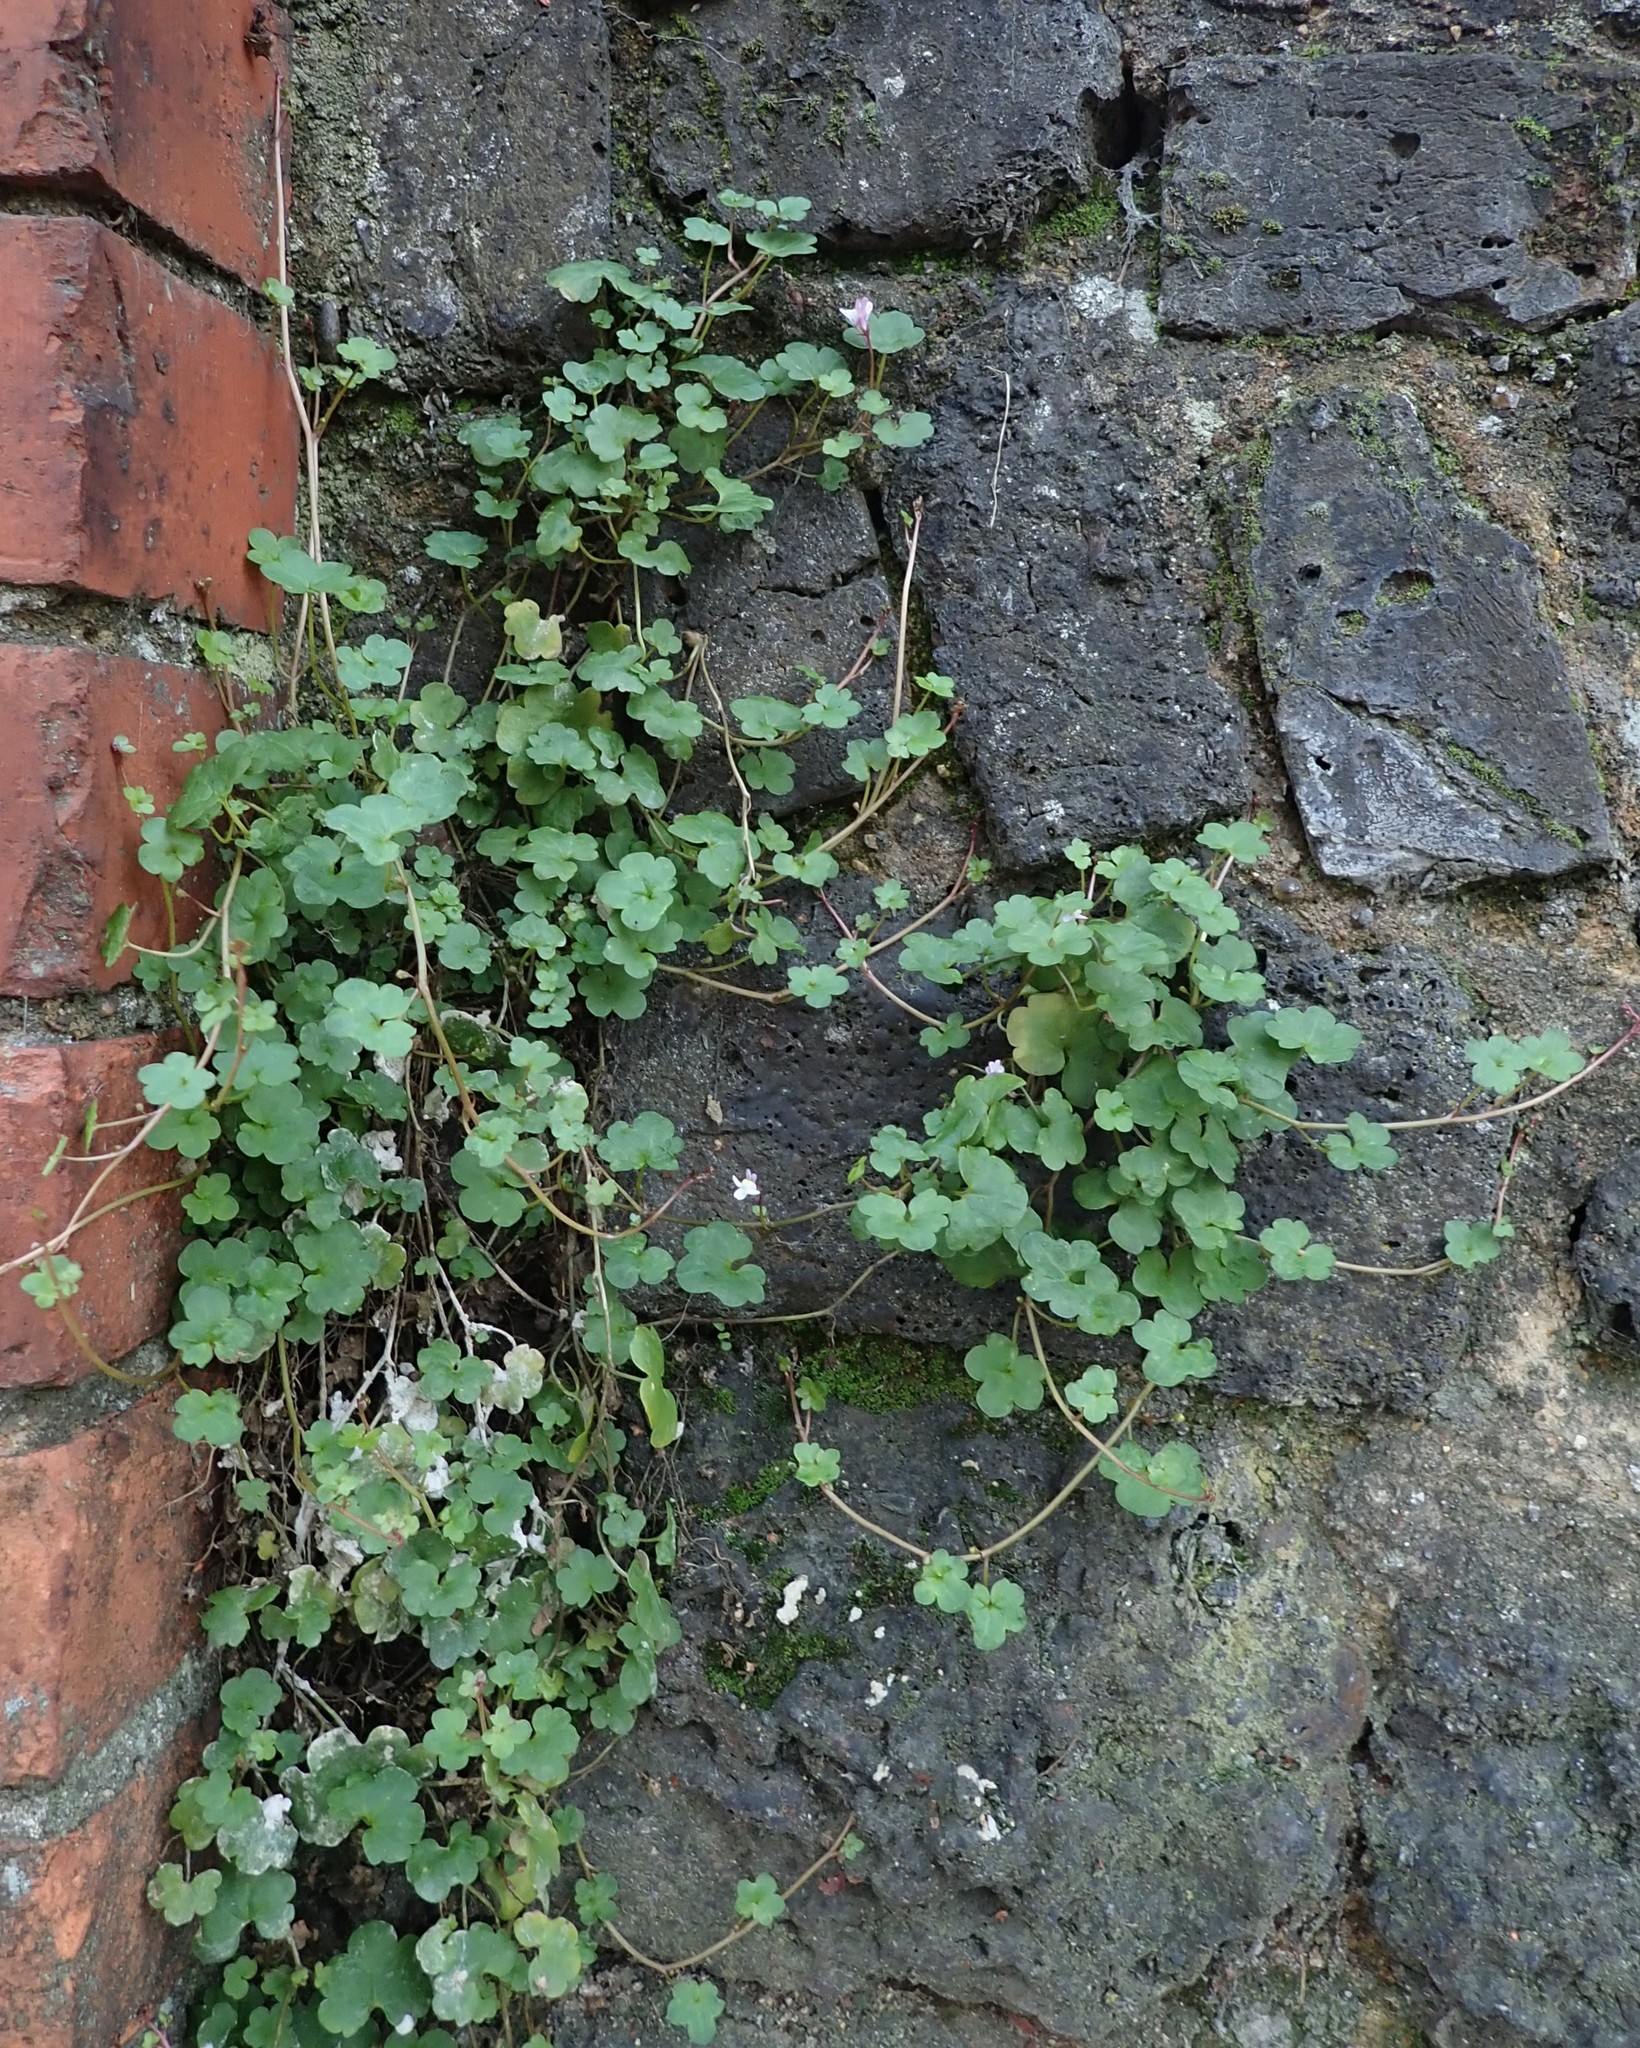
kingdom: Plantae
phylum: Tracheophyta
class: Magnoliopsida
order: Lamiales
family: Plantaginaceae
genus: Cymbalaria
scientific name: Cymbalaria muralis
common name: Ivy-leaved toadflax
